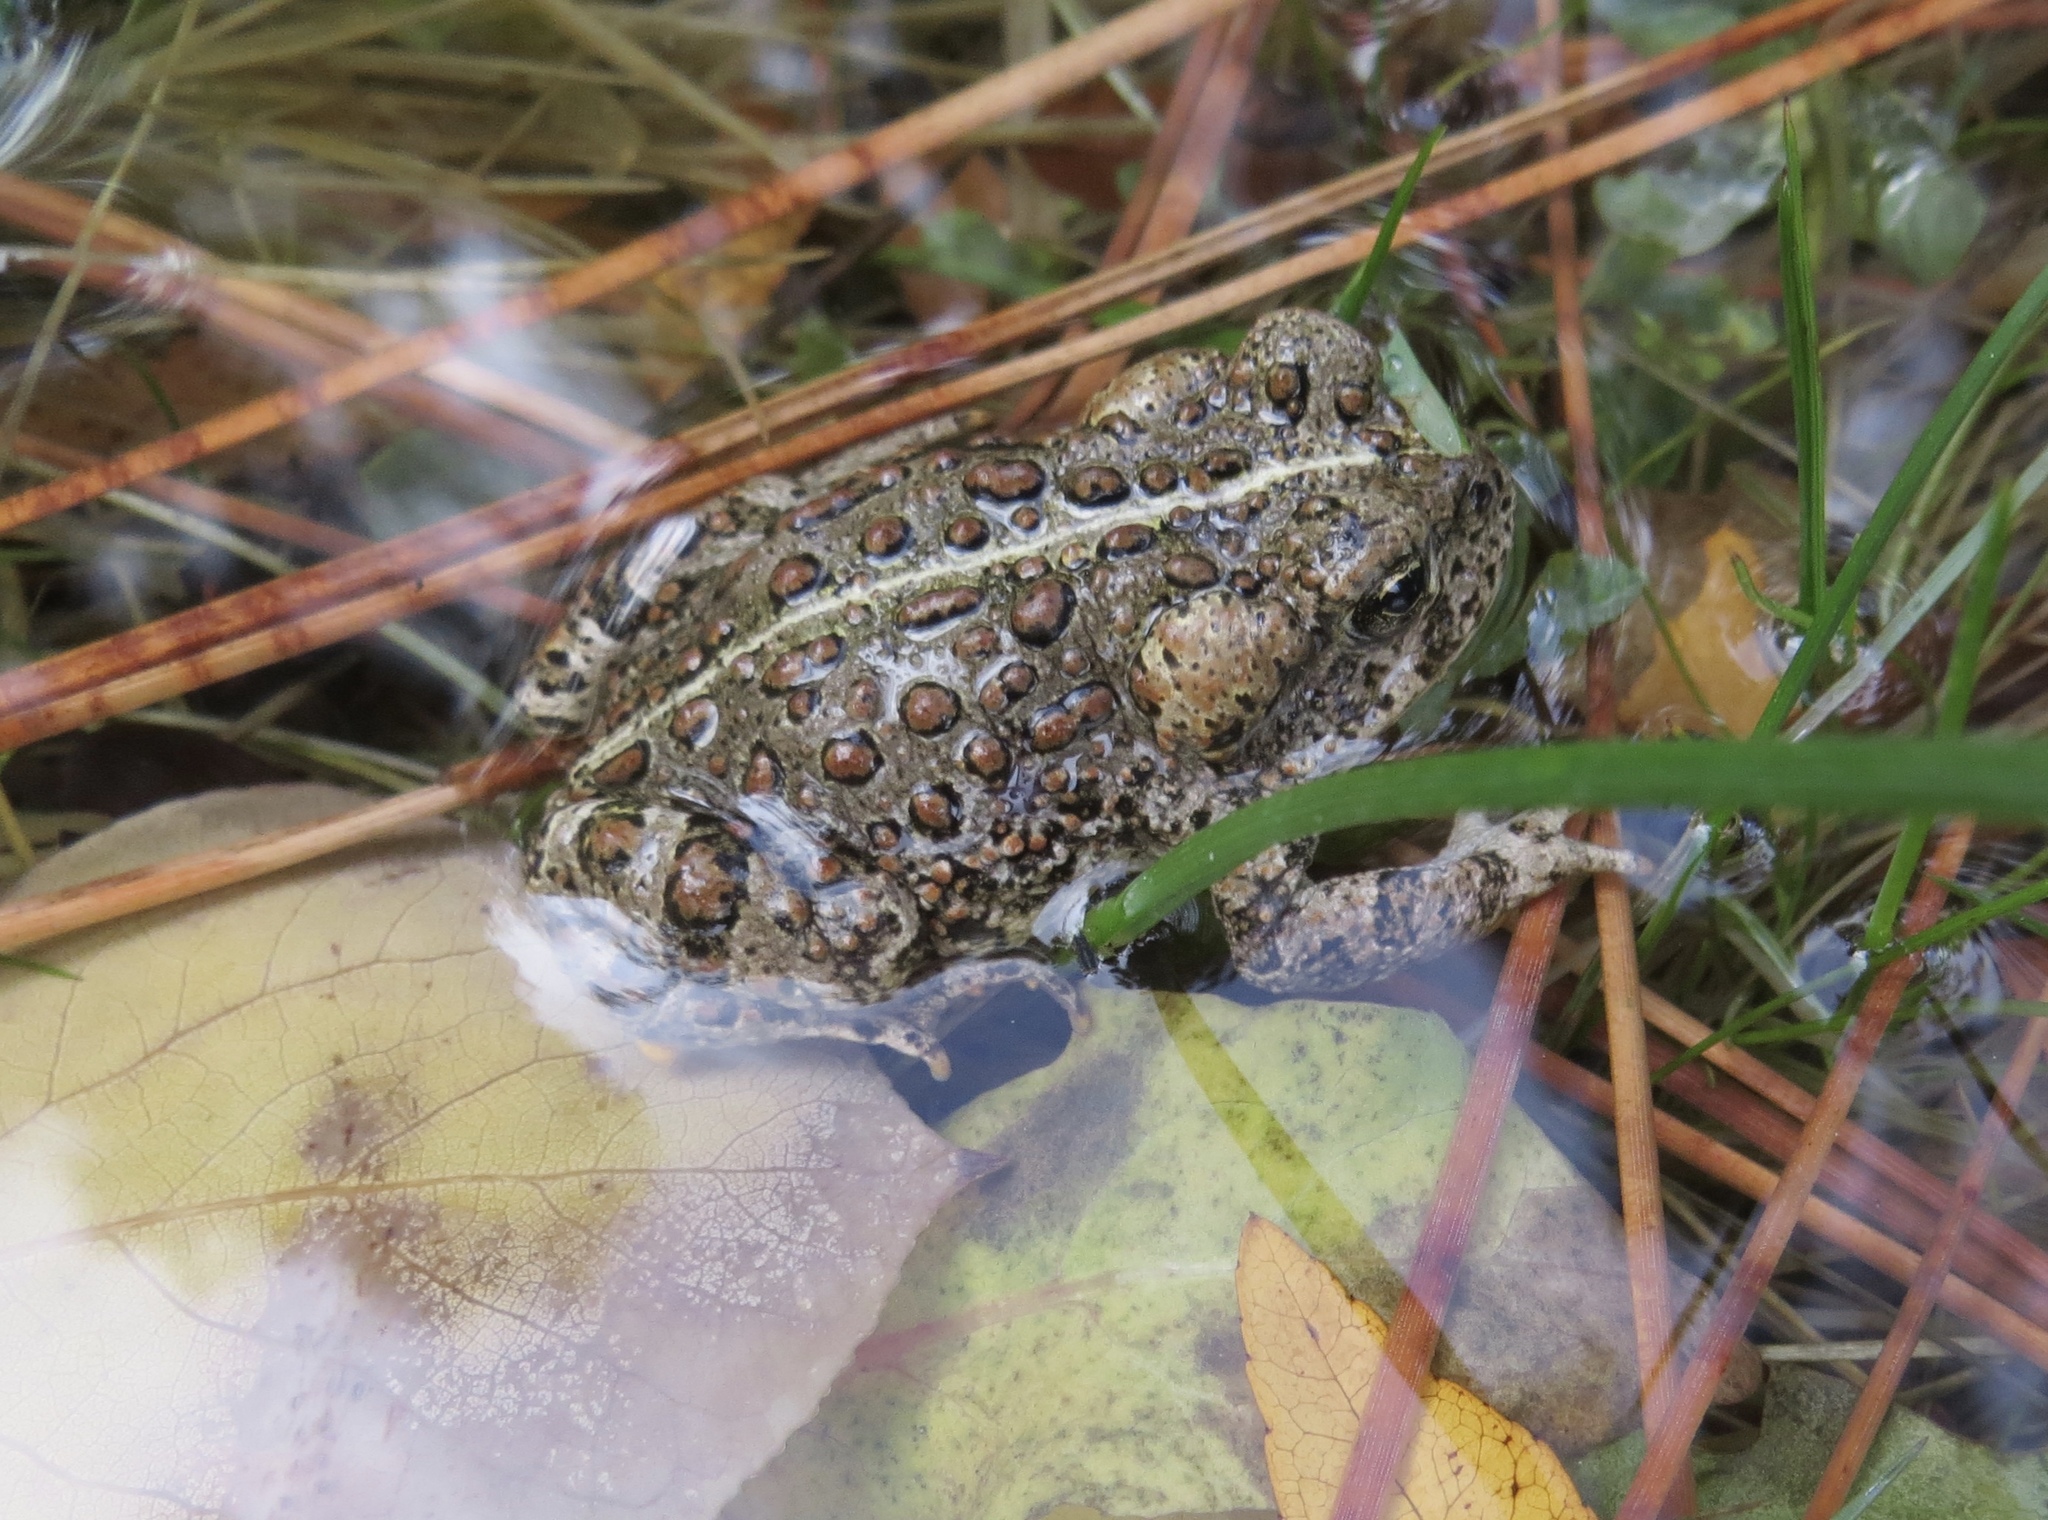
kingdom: Animalia
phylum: Chordata
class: Amphibia
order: Anura
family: Bufonidae
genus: Anaxyrus
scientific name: Anaxyrus boreas
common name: Western toad
